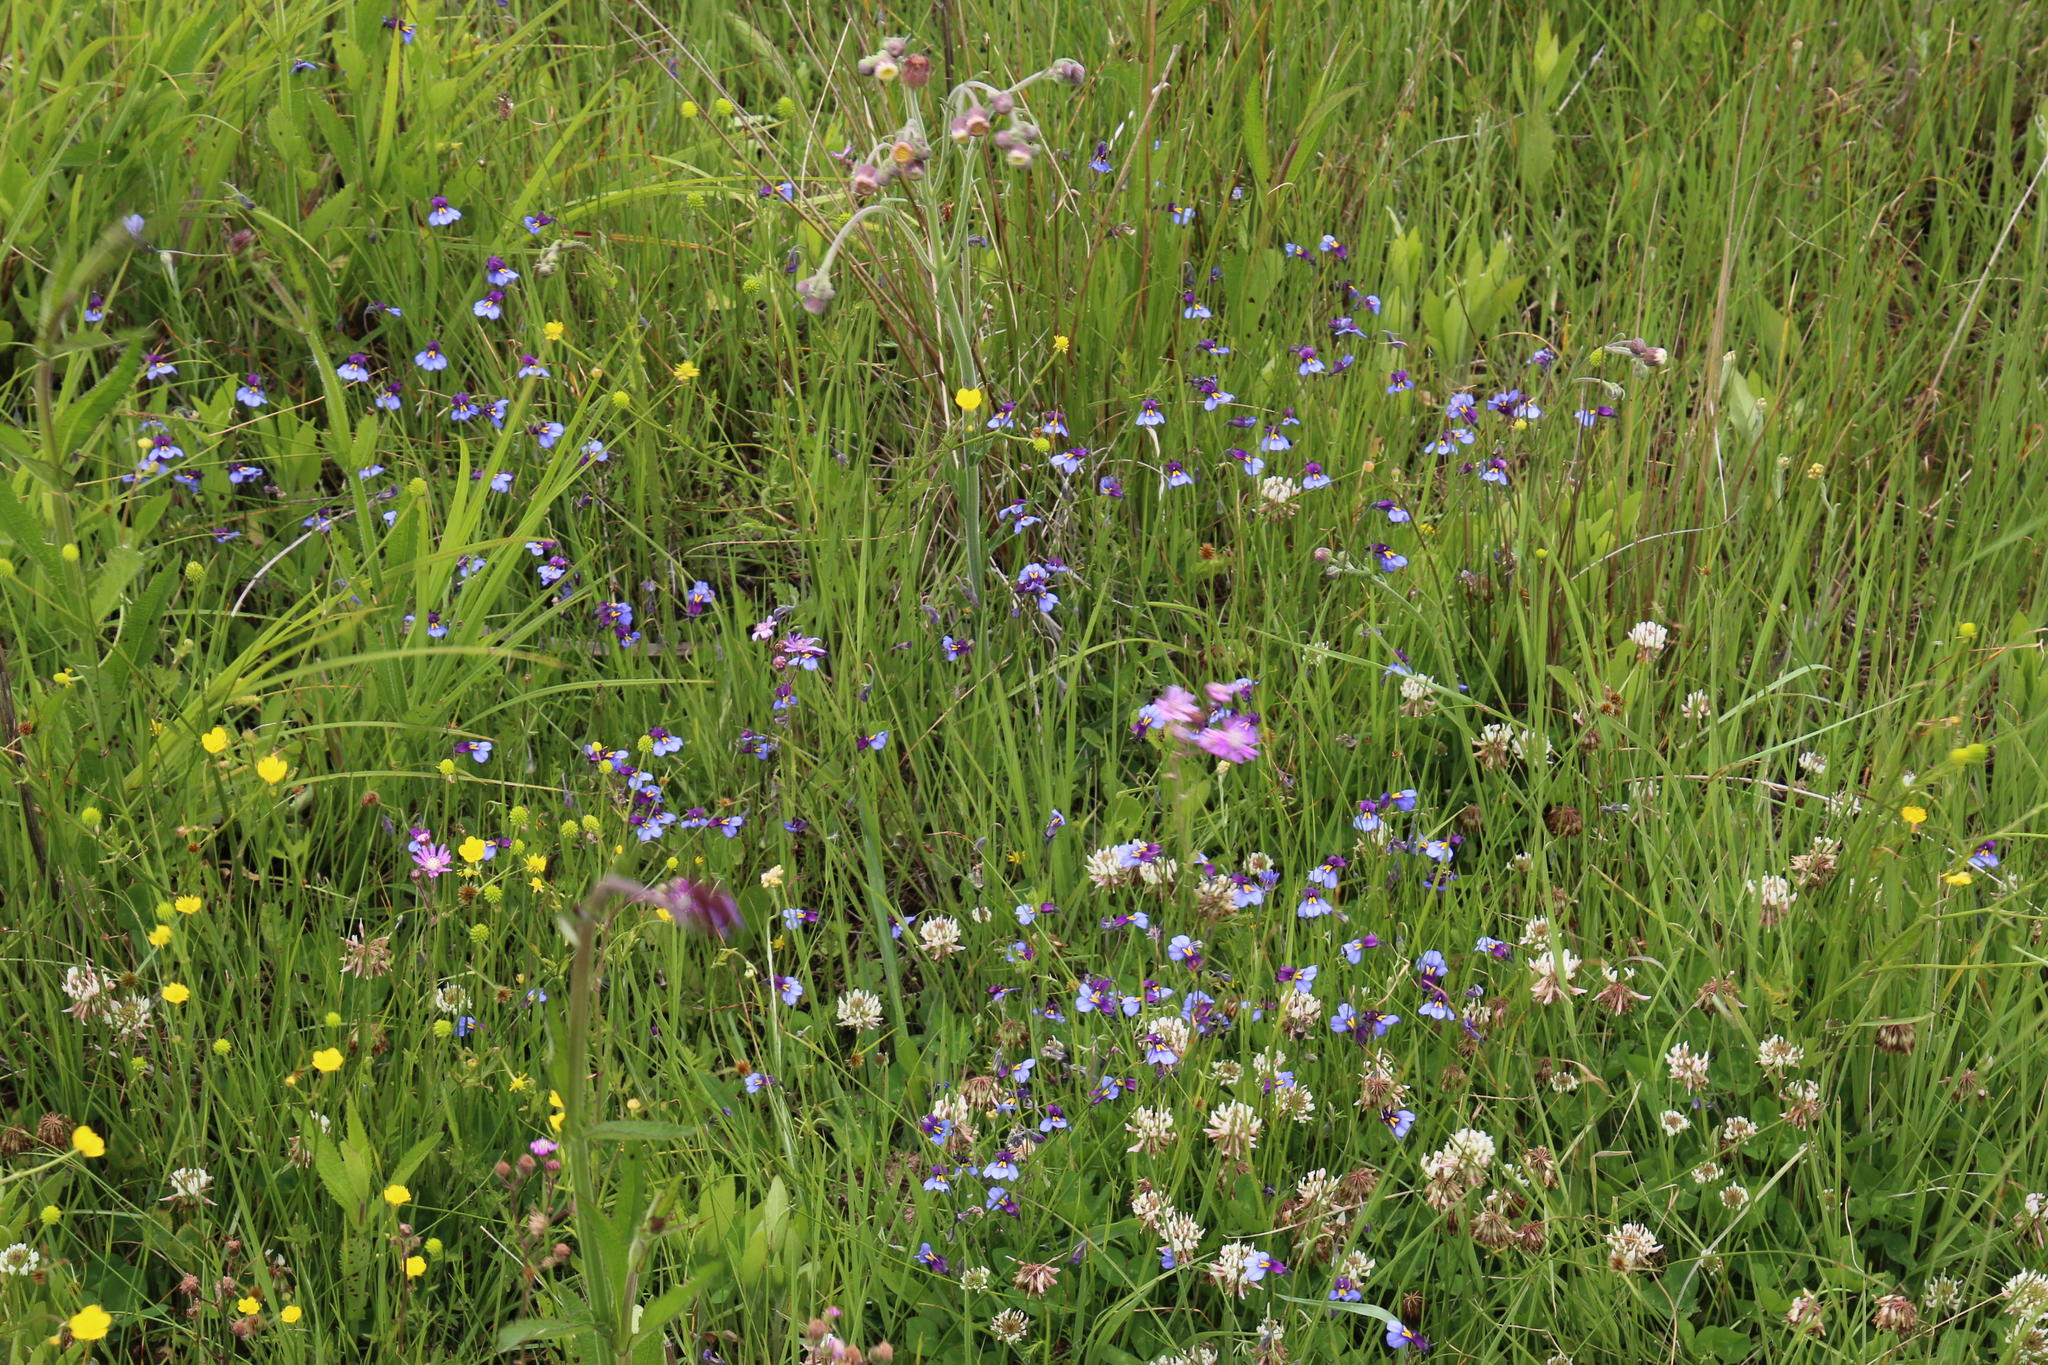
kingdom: Plantae
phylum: Tracheophyta
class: Magnoliopsida
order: Asterales
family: Campanulaceae
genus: Monopsis
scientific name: Monopsis decipiens
